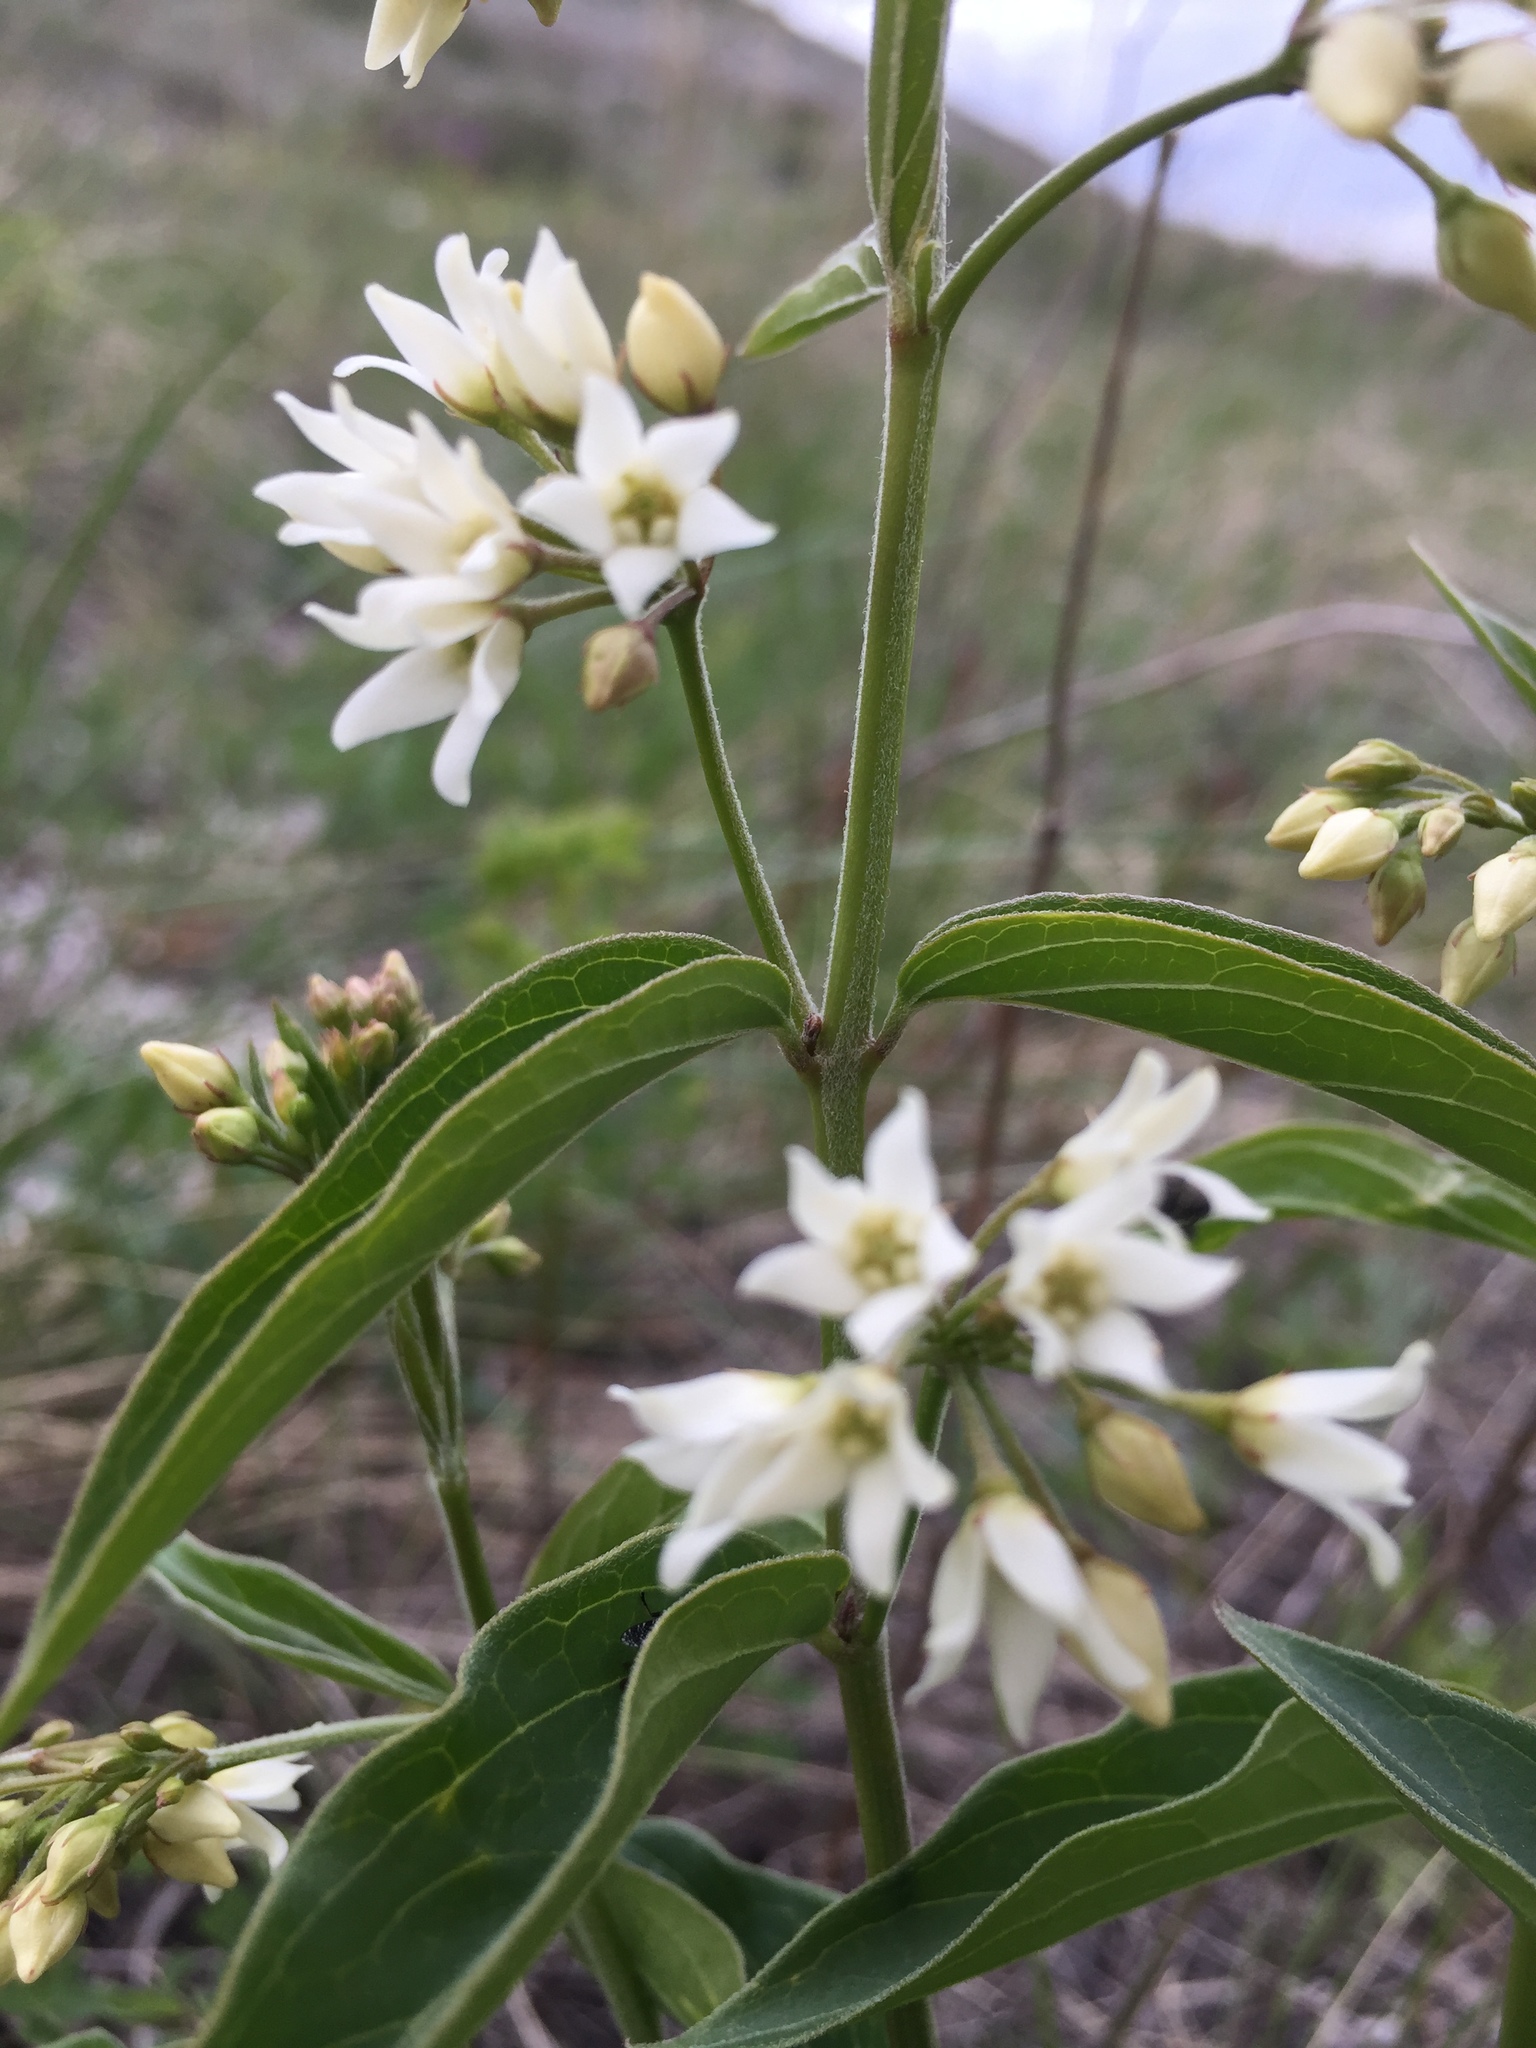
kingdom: Plantae
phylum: Tracheophyta
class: Magnoliopsida
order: Gentianales
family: Apocynaceae
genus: Vincetoxicum
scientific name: Vincetoxicum hirundinaria
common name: White swallowwort
